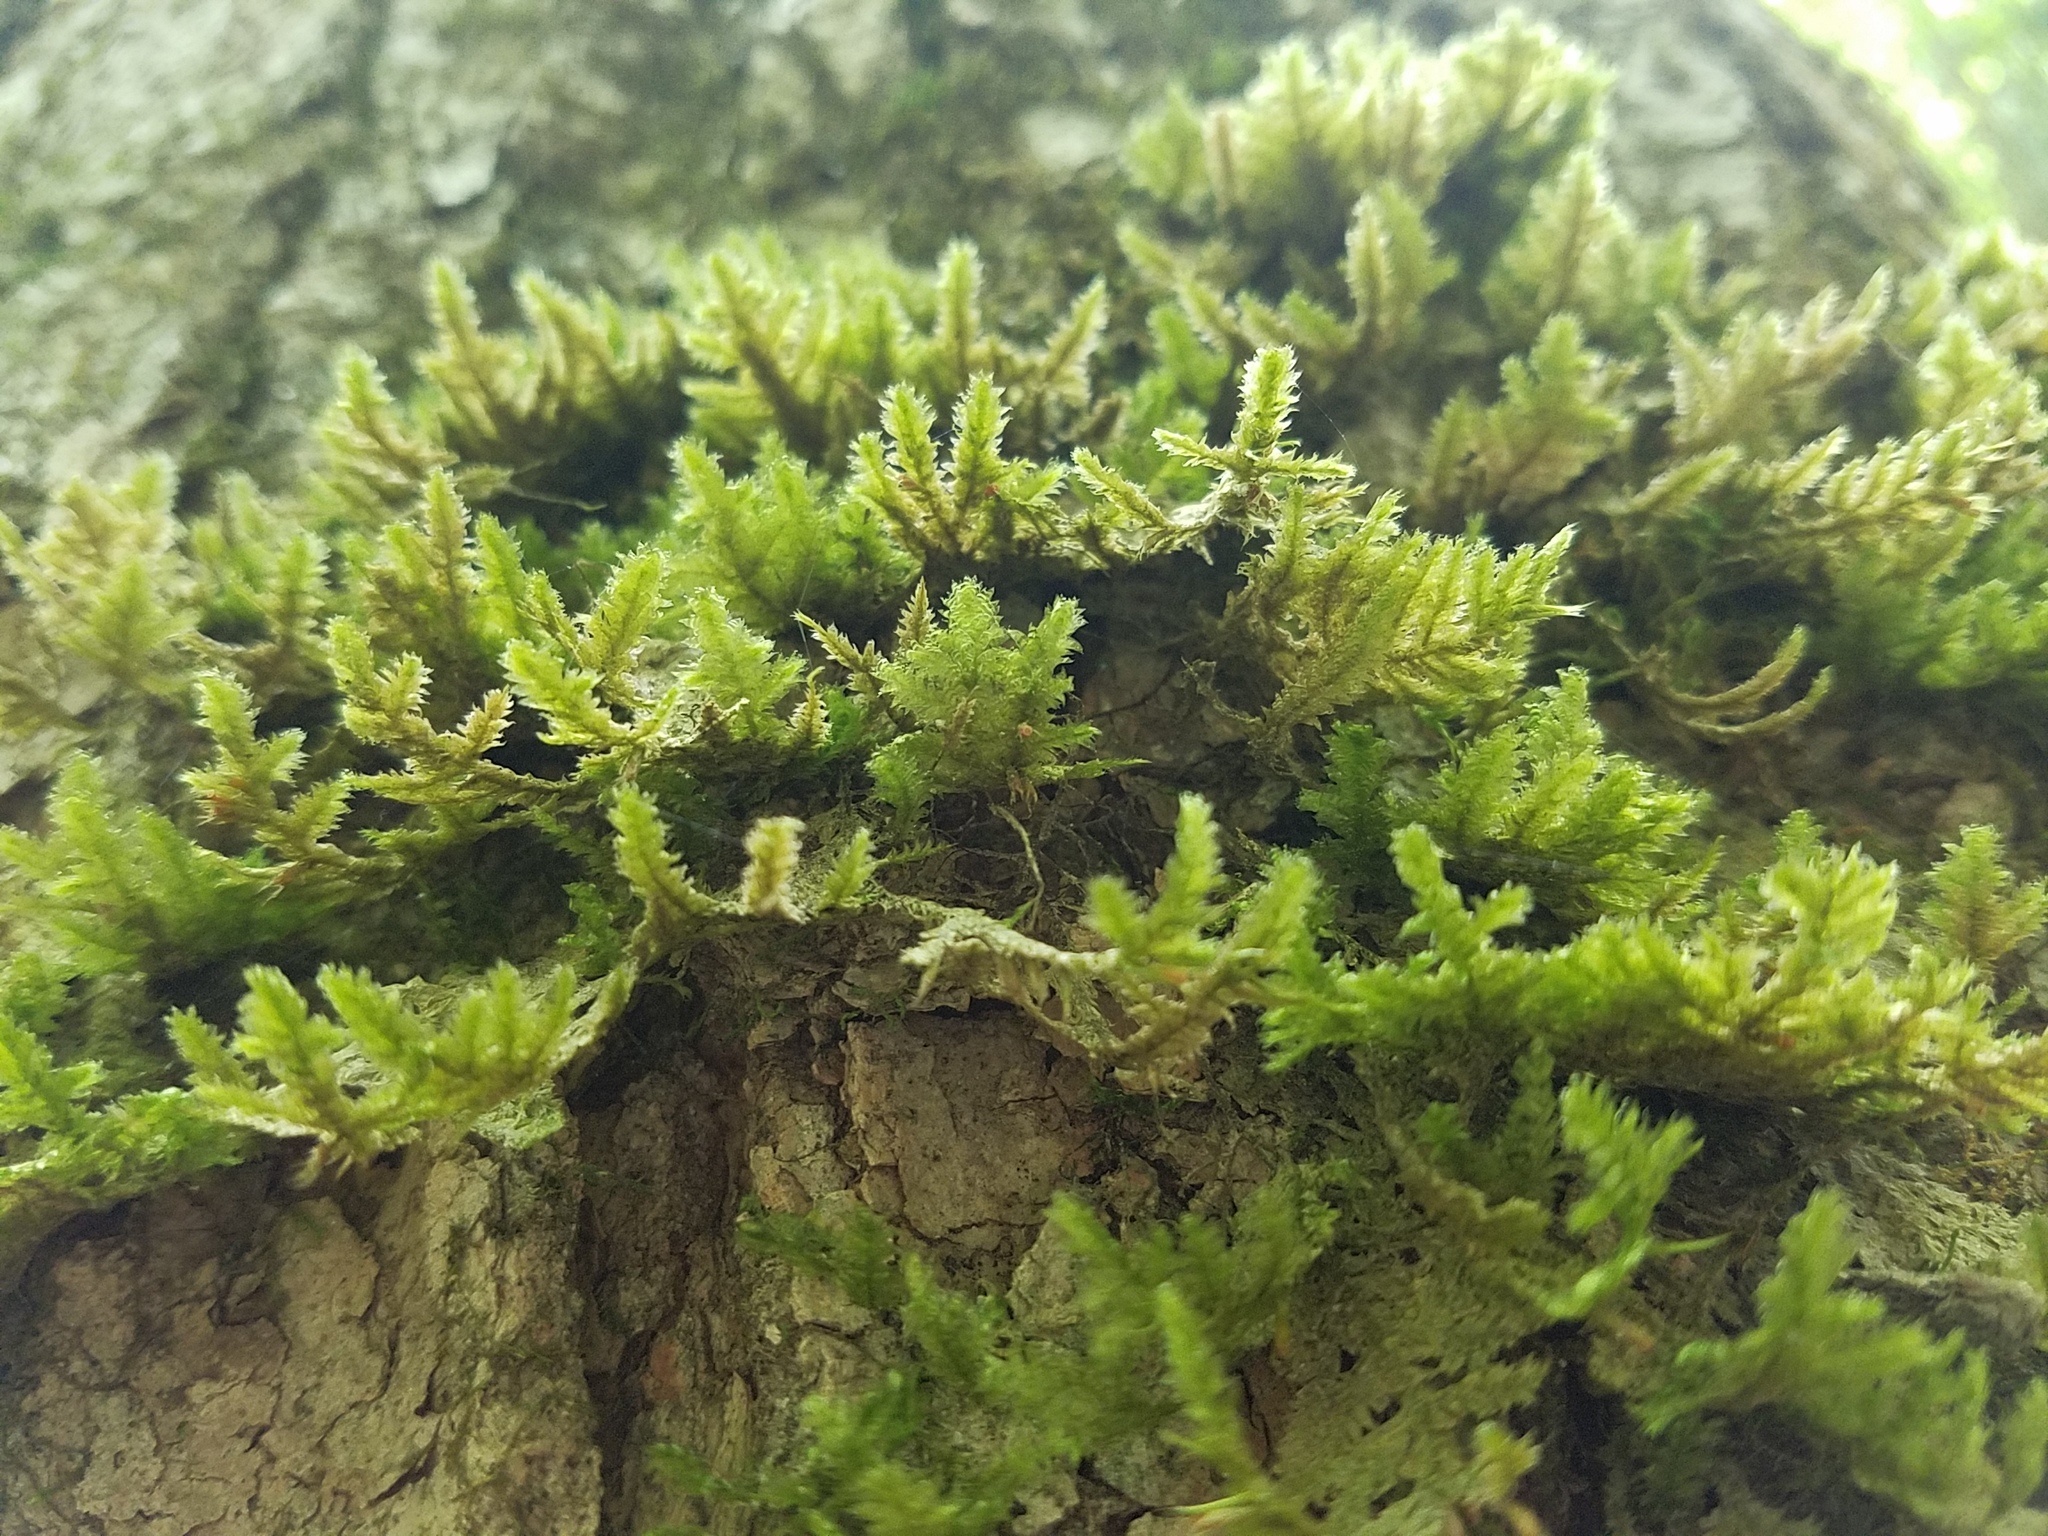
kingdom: Plantae
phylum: Bryophyta
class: Bryopsida
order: Hypnales
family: Neckeraceae
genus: Neckera
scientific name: Neckera pennata
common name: Feathery neckera
